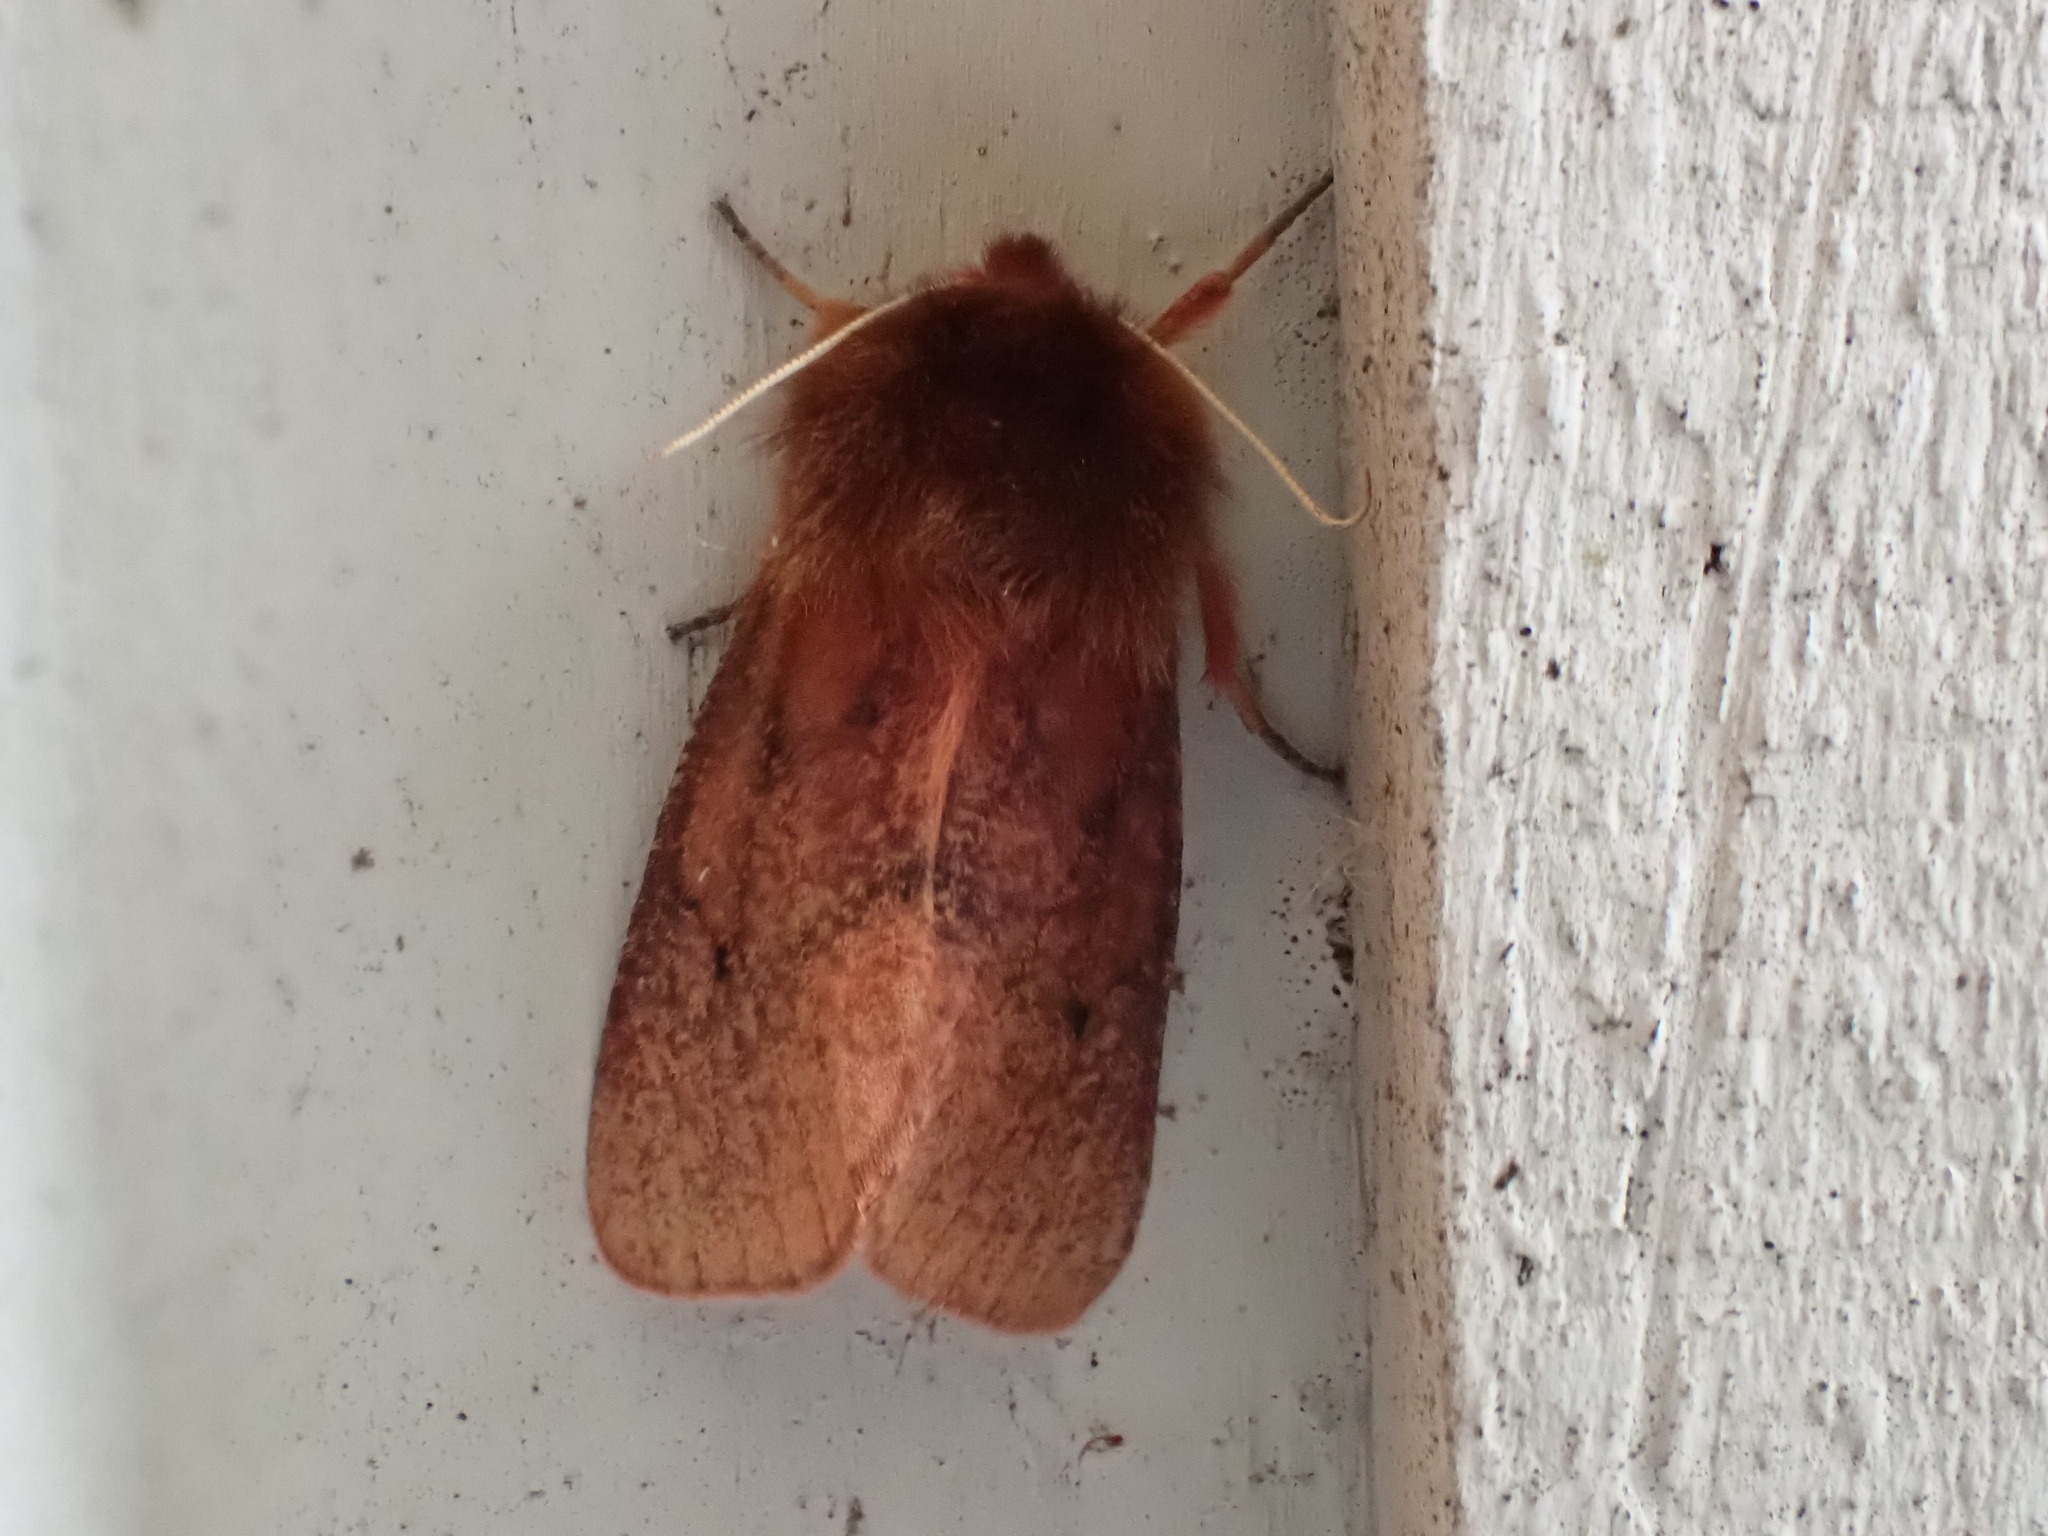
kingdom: Animalia
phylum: Arthropoda
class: Insecta
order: Lepidoptera
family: Erebidae
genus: Phragmatobia
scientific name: Phragmatobia fuliginosa
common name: Ruby tiger
